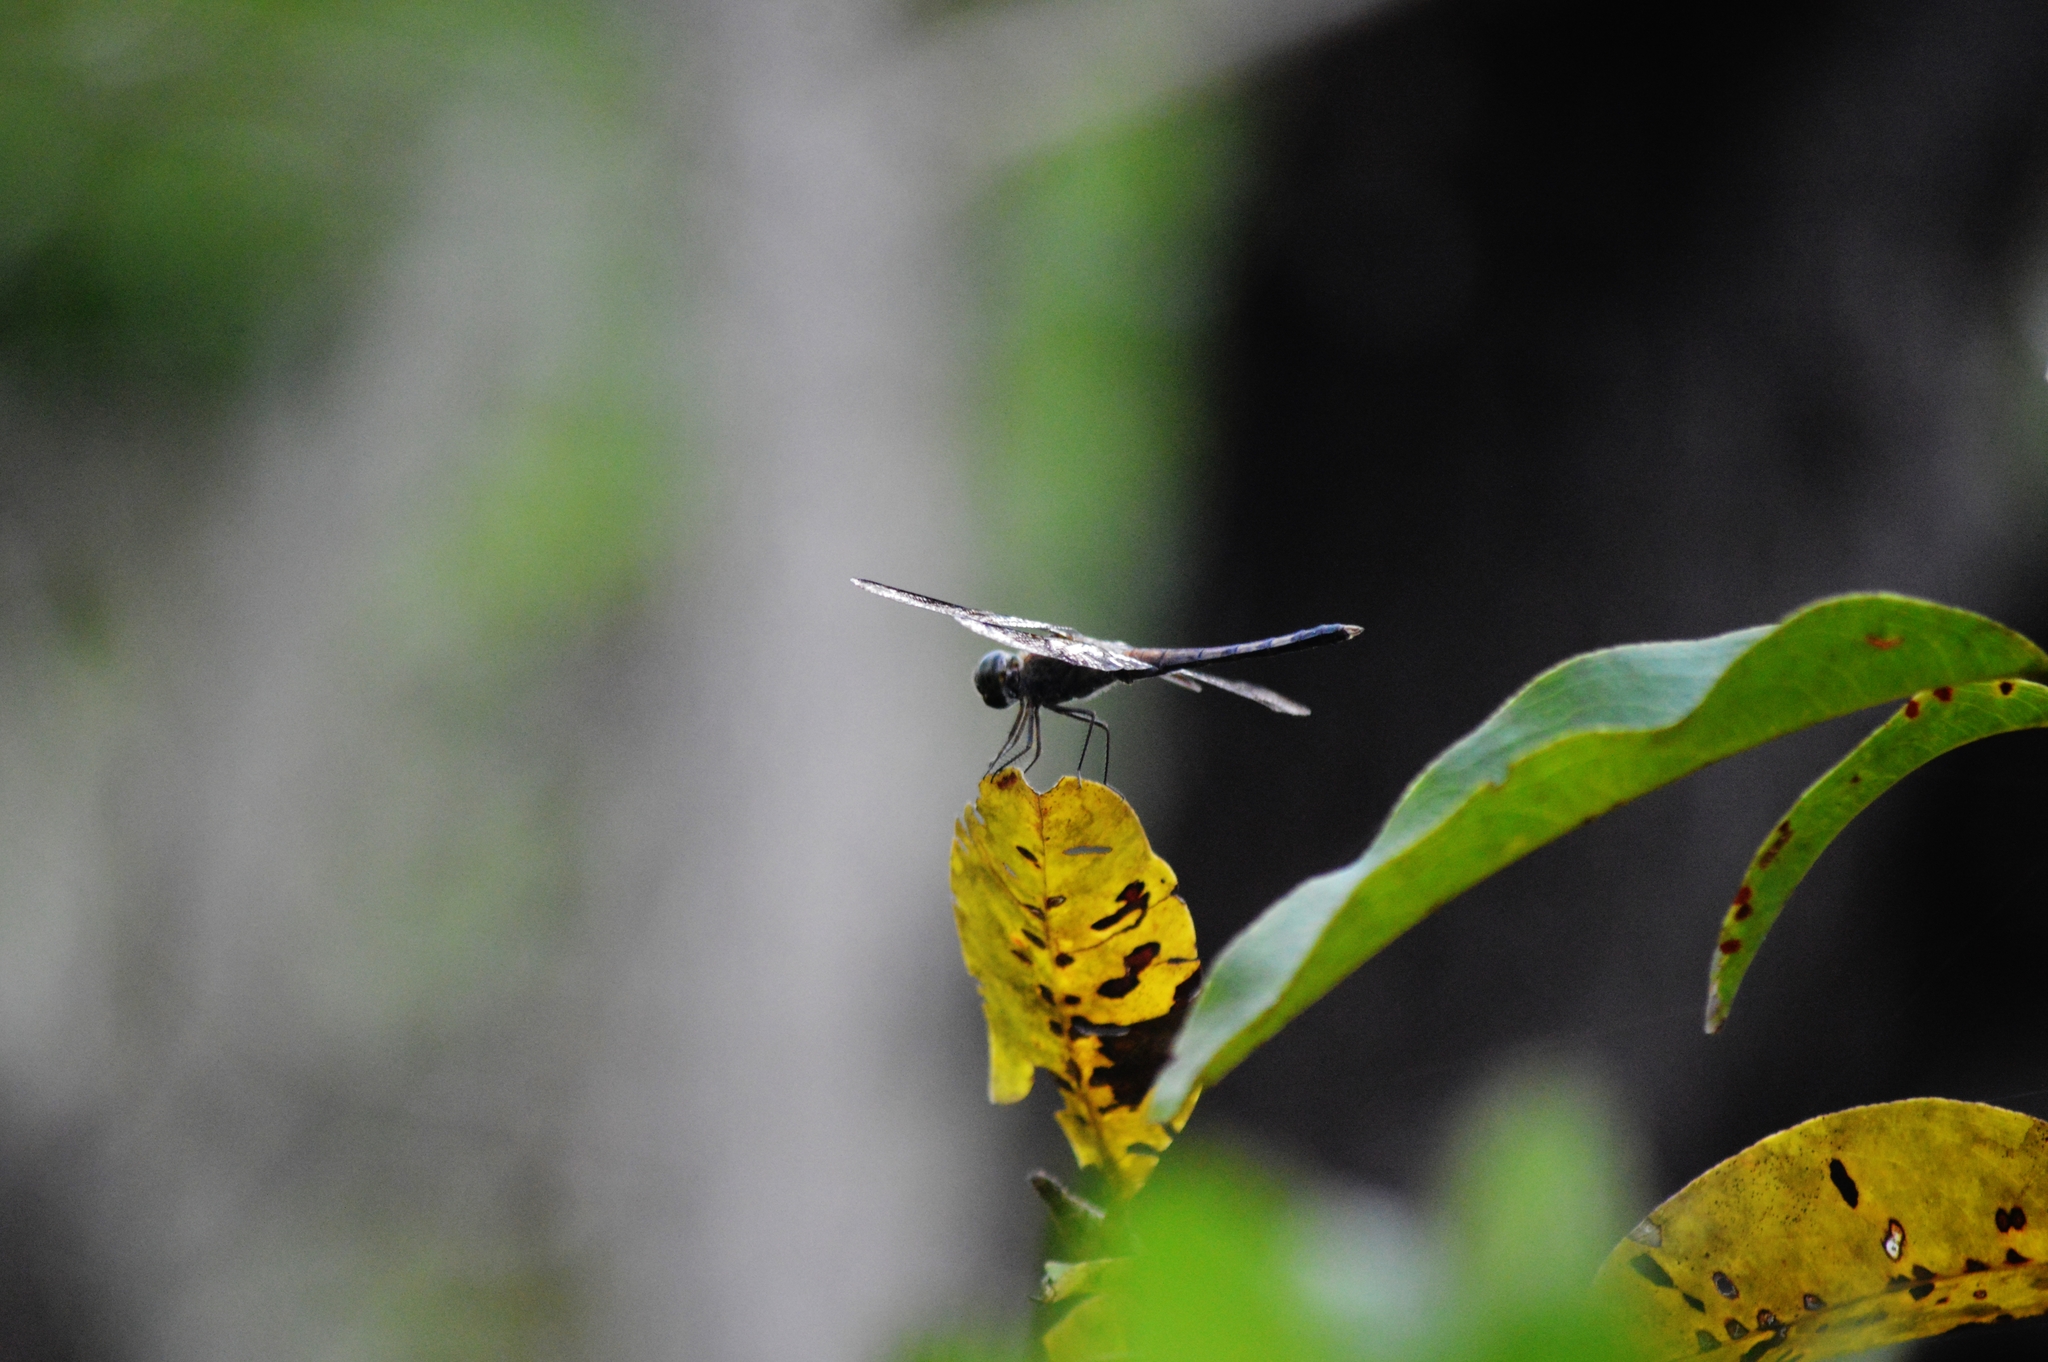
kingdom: Animalia
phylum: Arthropoda
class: Insecta
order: Odonata
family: Libellulidae
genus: Erythrodiplax
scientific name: Erythrodiplax umbrata
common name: Band-winged dragonlet
